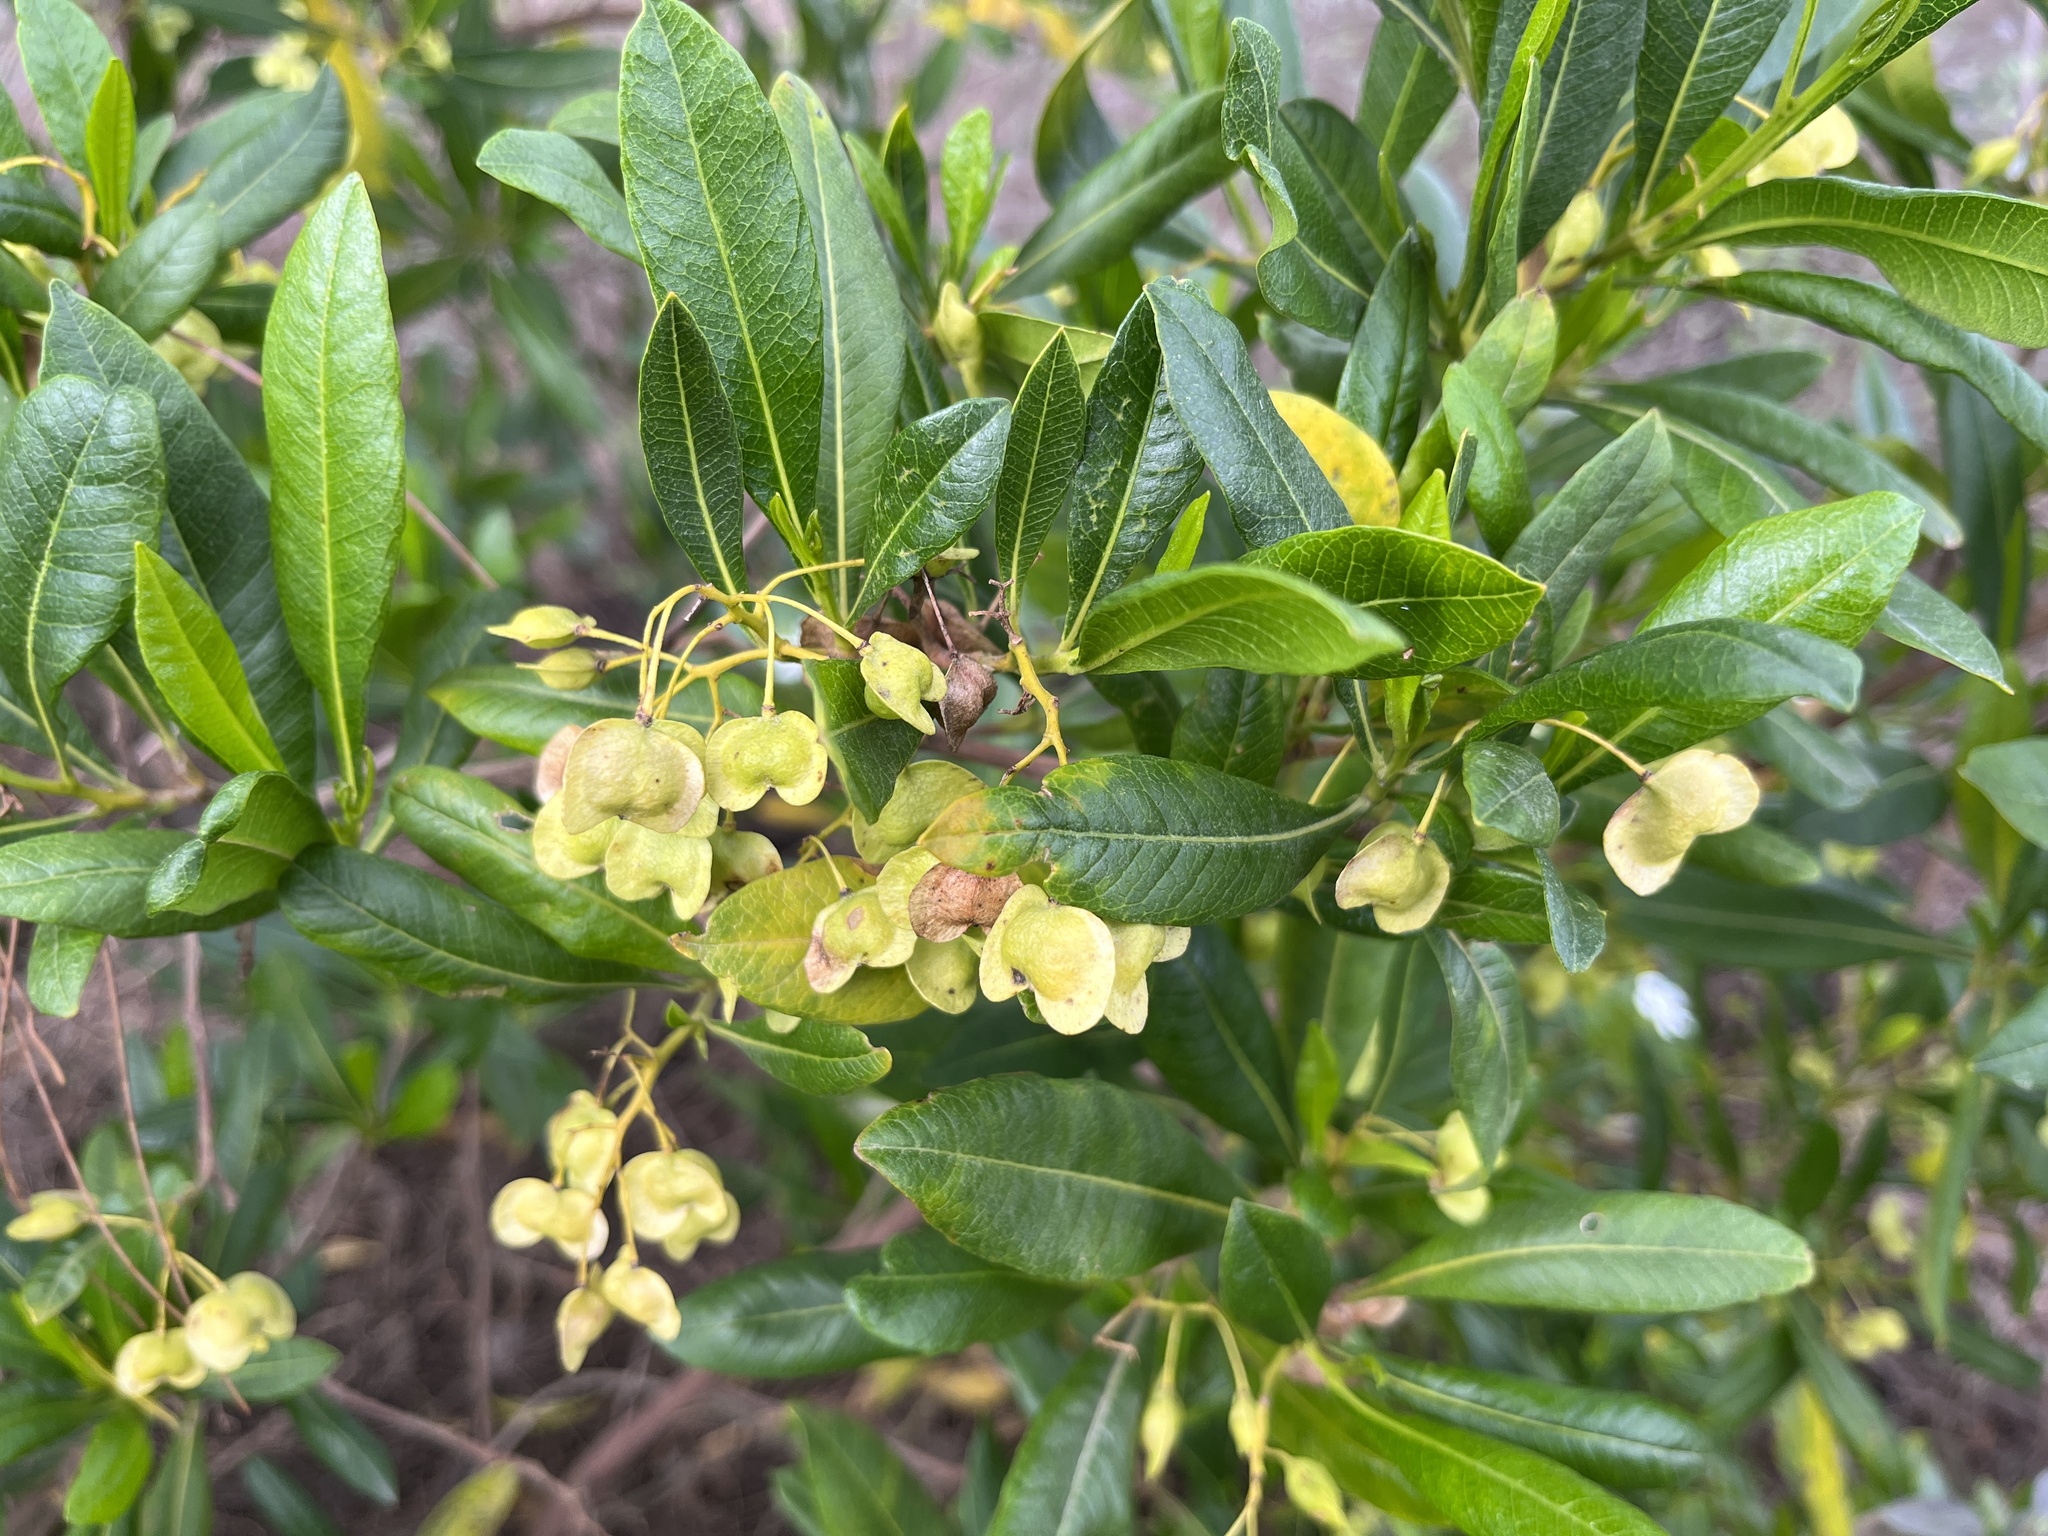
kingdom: Plantae
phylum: Tracheophyta
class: Magnoliopsida
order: Sapindales
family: Sapindaceae
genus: Dodonaea
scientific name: Dodonaea viscosa
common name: Hopbush
